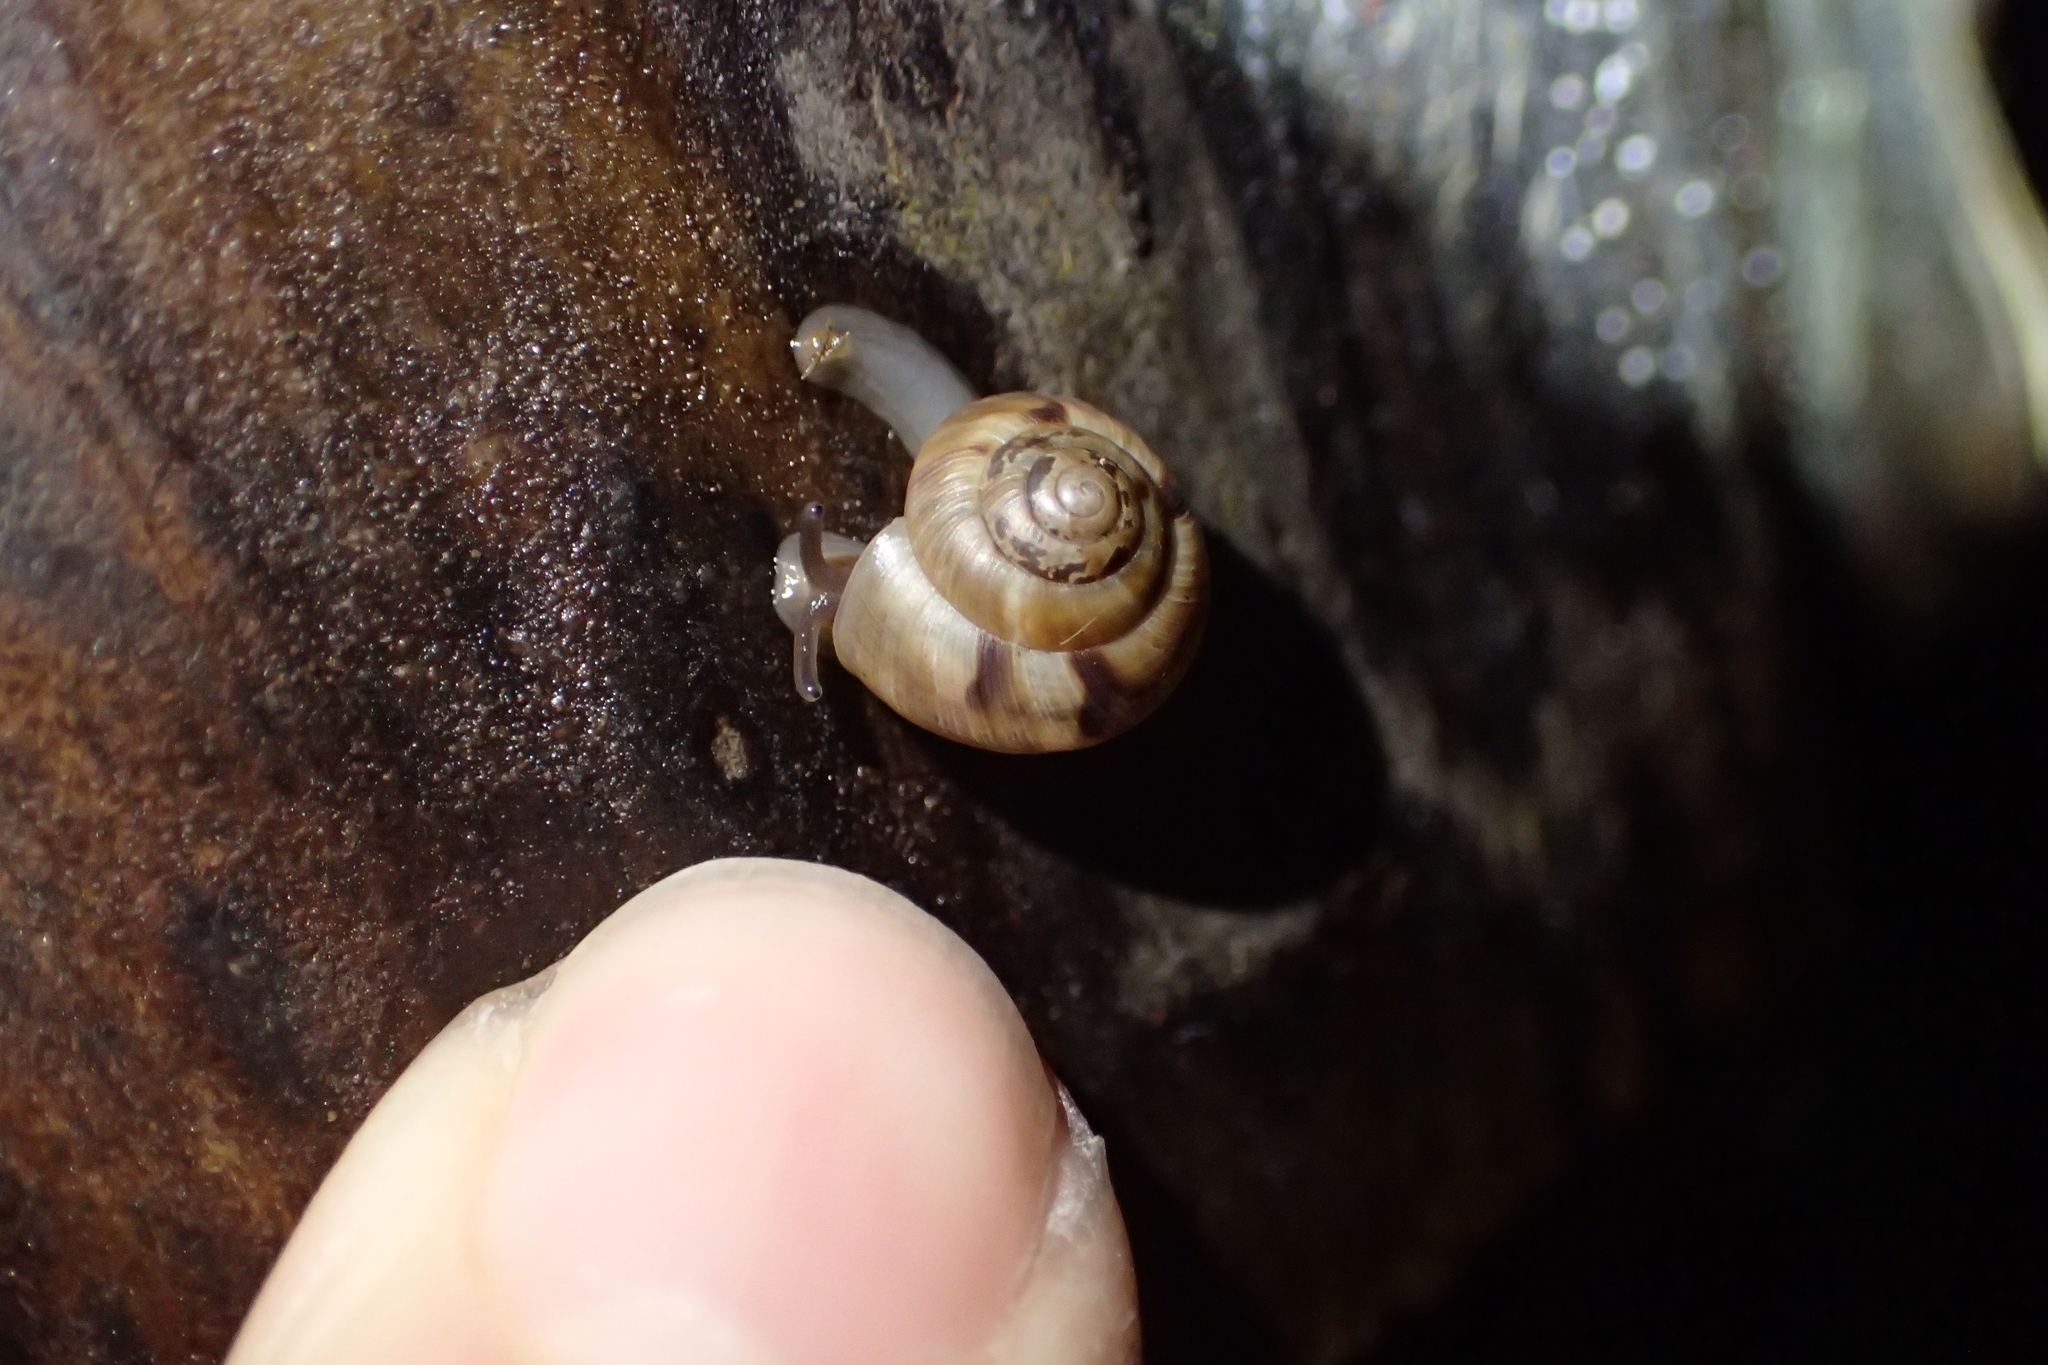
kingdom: Animalia
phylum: Mollusca
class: Gastropoda
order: Stylommatophora
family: Charopidae
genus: Serpho
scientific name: Serpho
